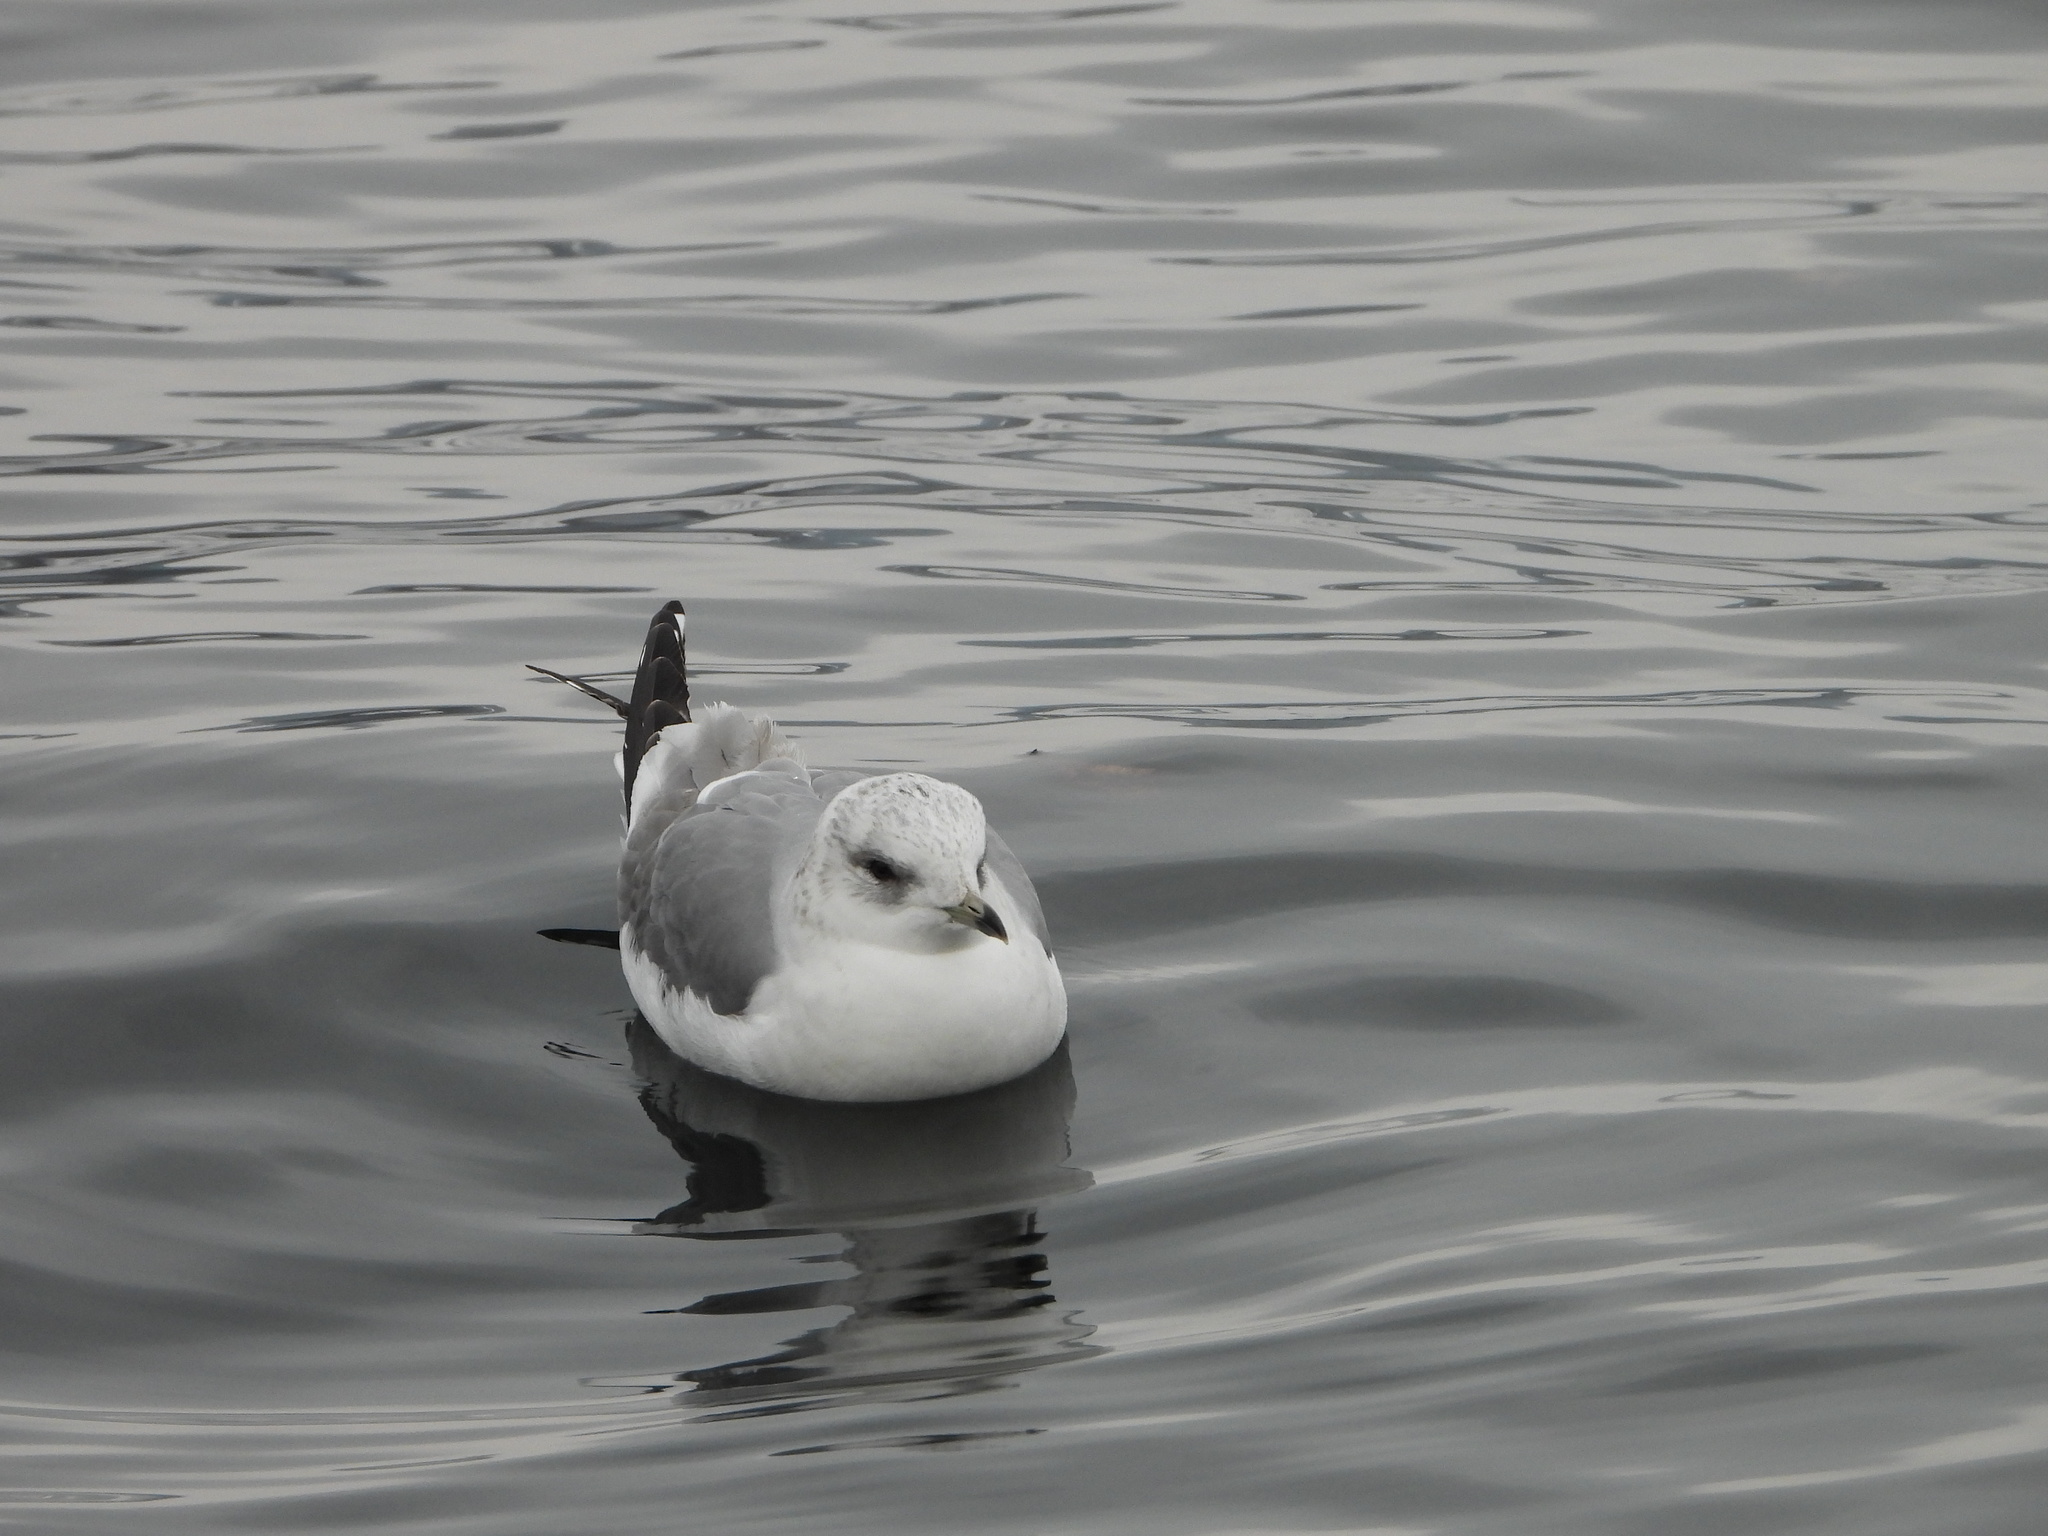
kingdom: Animalia
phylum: Chordata
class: Aves
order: Charadriiformes
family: Laridae
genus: Larus
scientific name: Larus canus
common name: Mew gull
